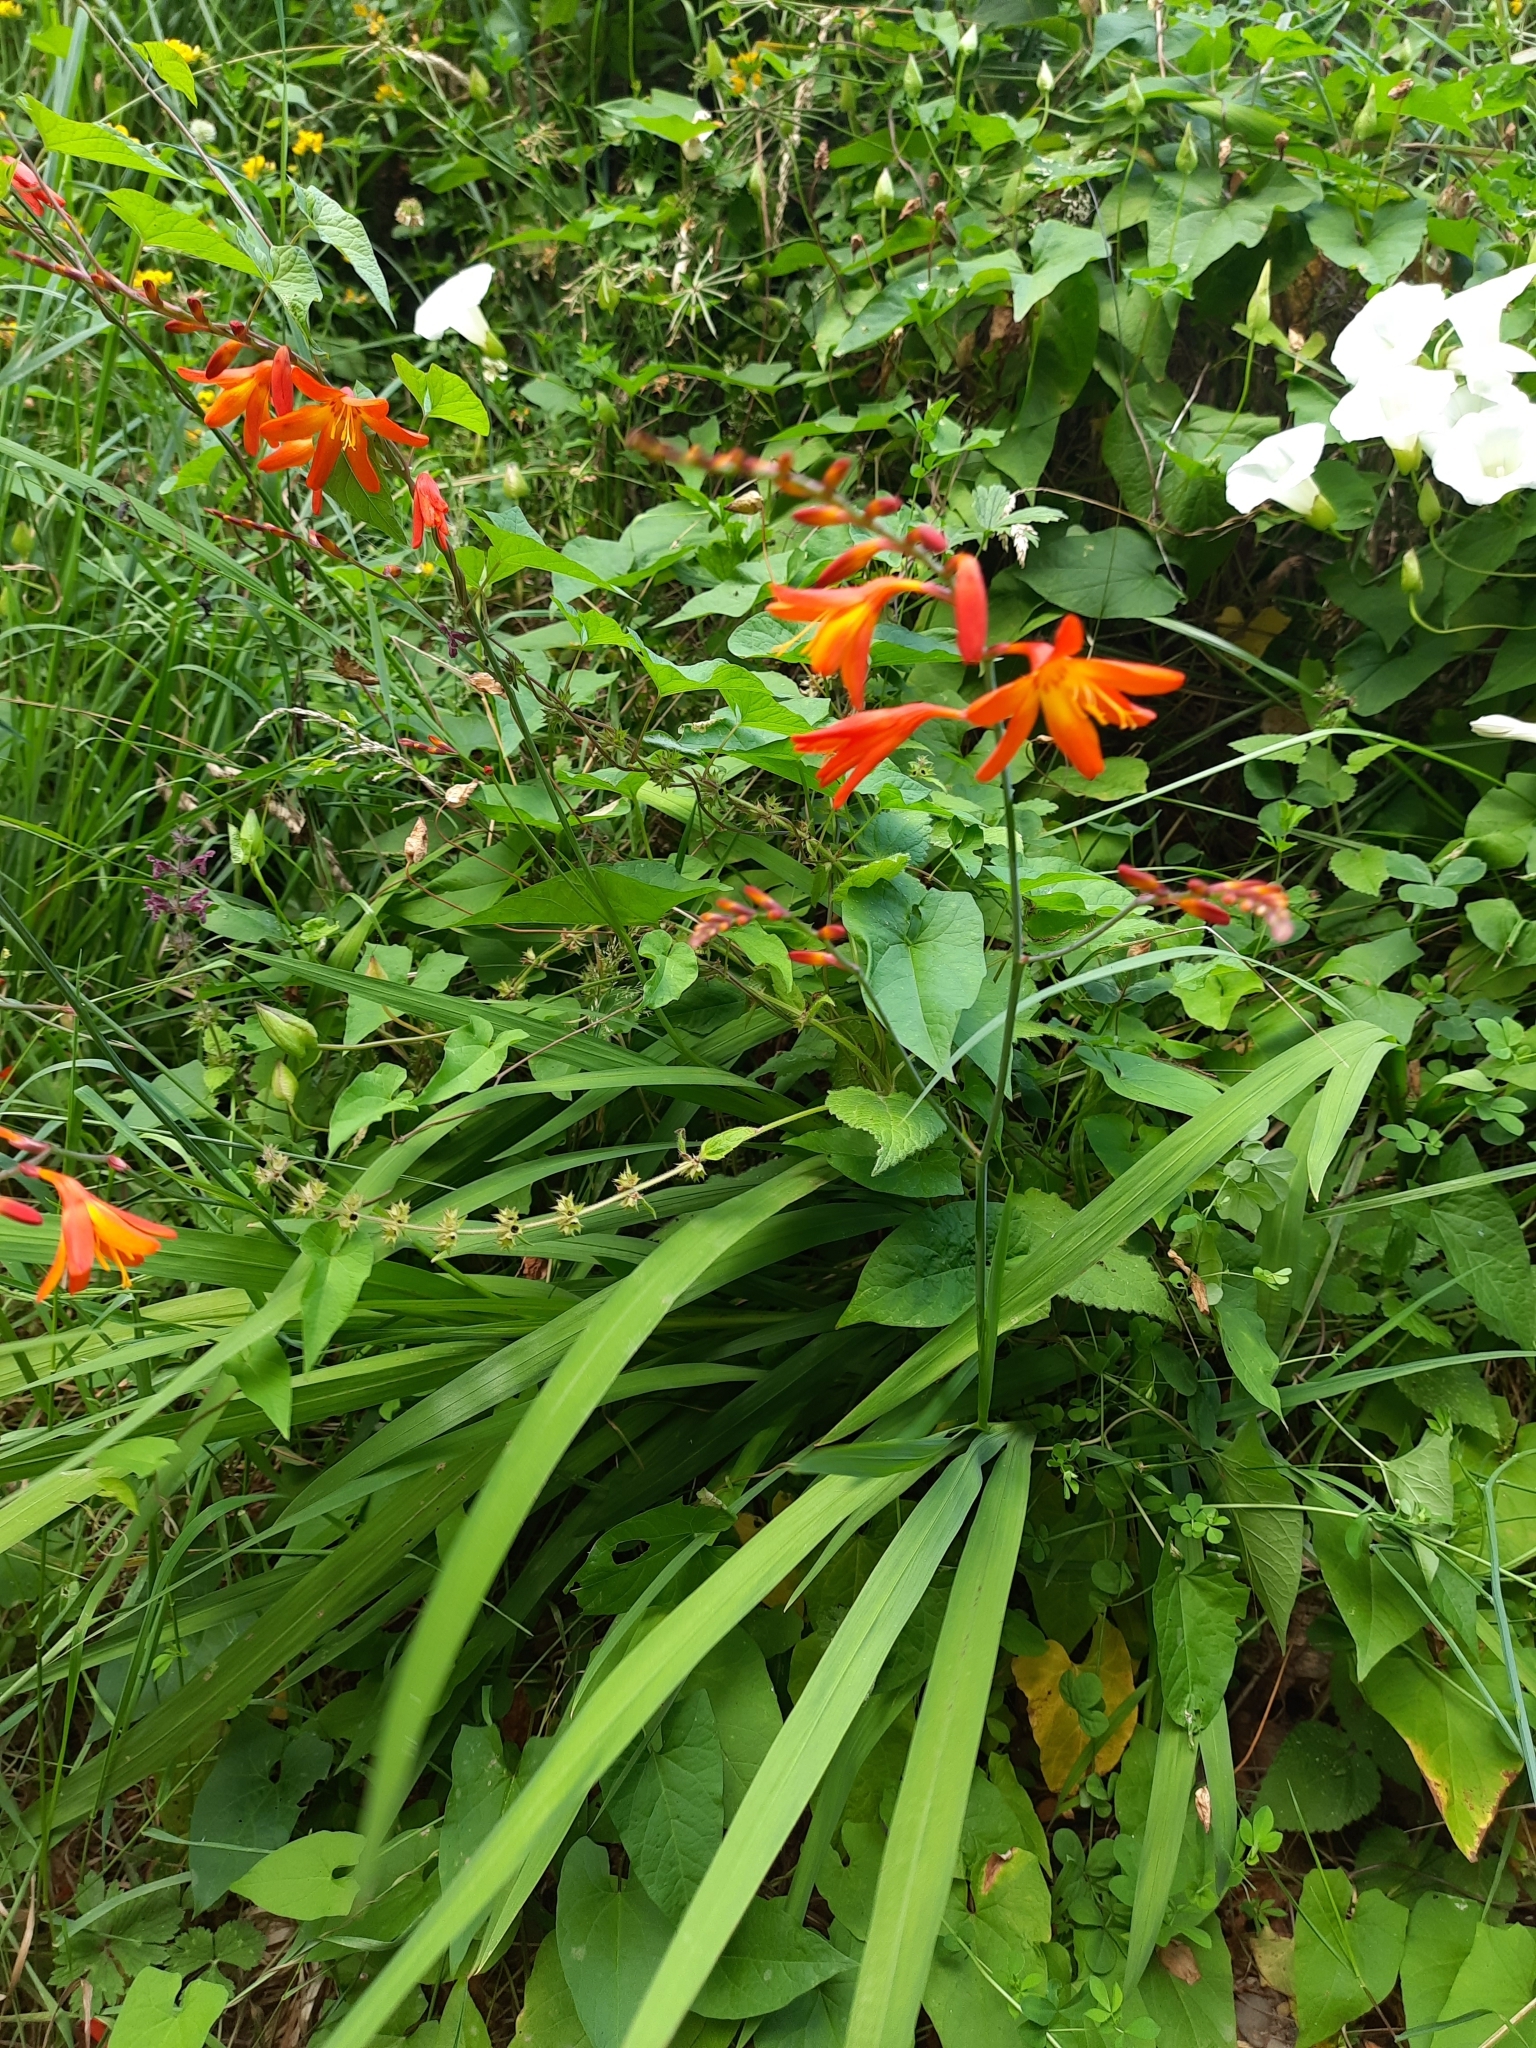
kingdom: Plantae
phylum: Tracheophyta
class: Liliopsida
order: Asparagales
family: Iridaceae
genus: Crocosmia
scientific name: Crocosmia crocosmiiflora
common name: Montbretia
